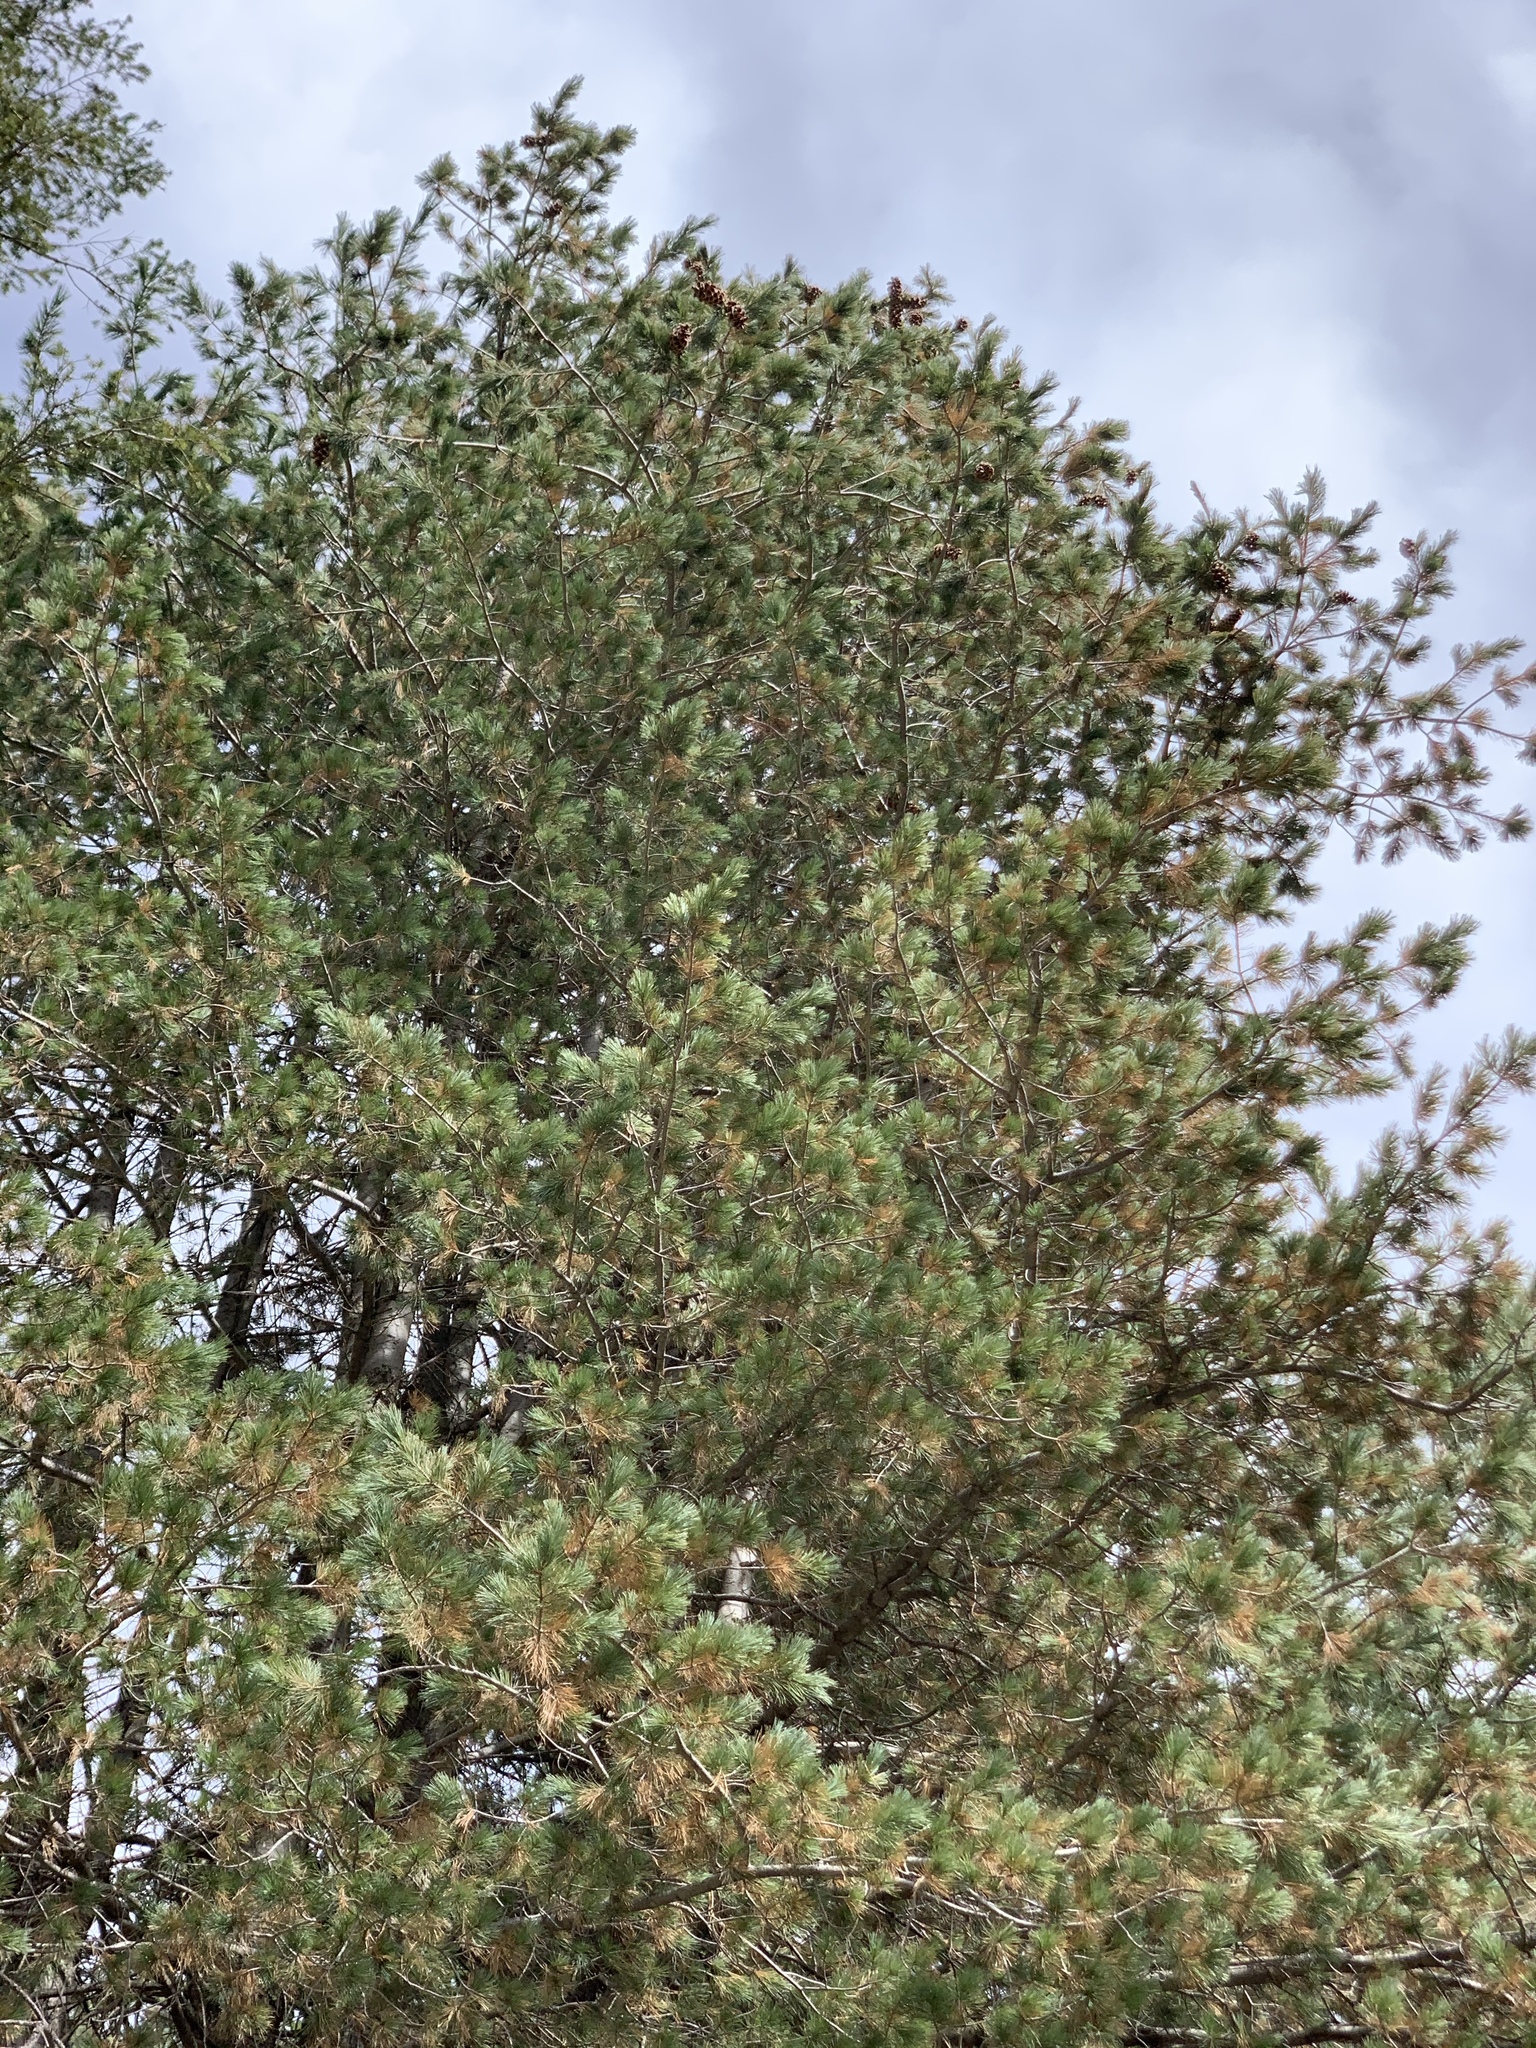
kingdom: Plantae
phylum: Tracheophyta
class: Pinopsida
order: Pinales
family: Pinaceae
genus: Pinus
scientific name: Pinus strobiformis
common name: Southwestern white pine
